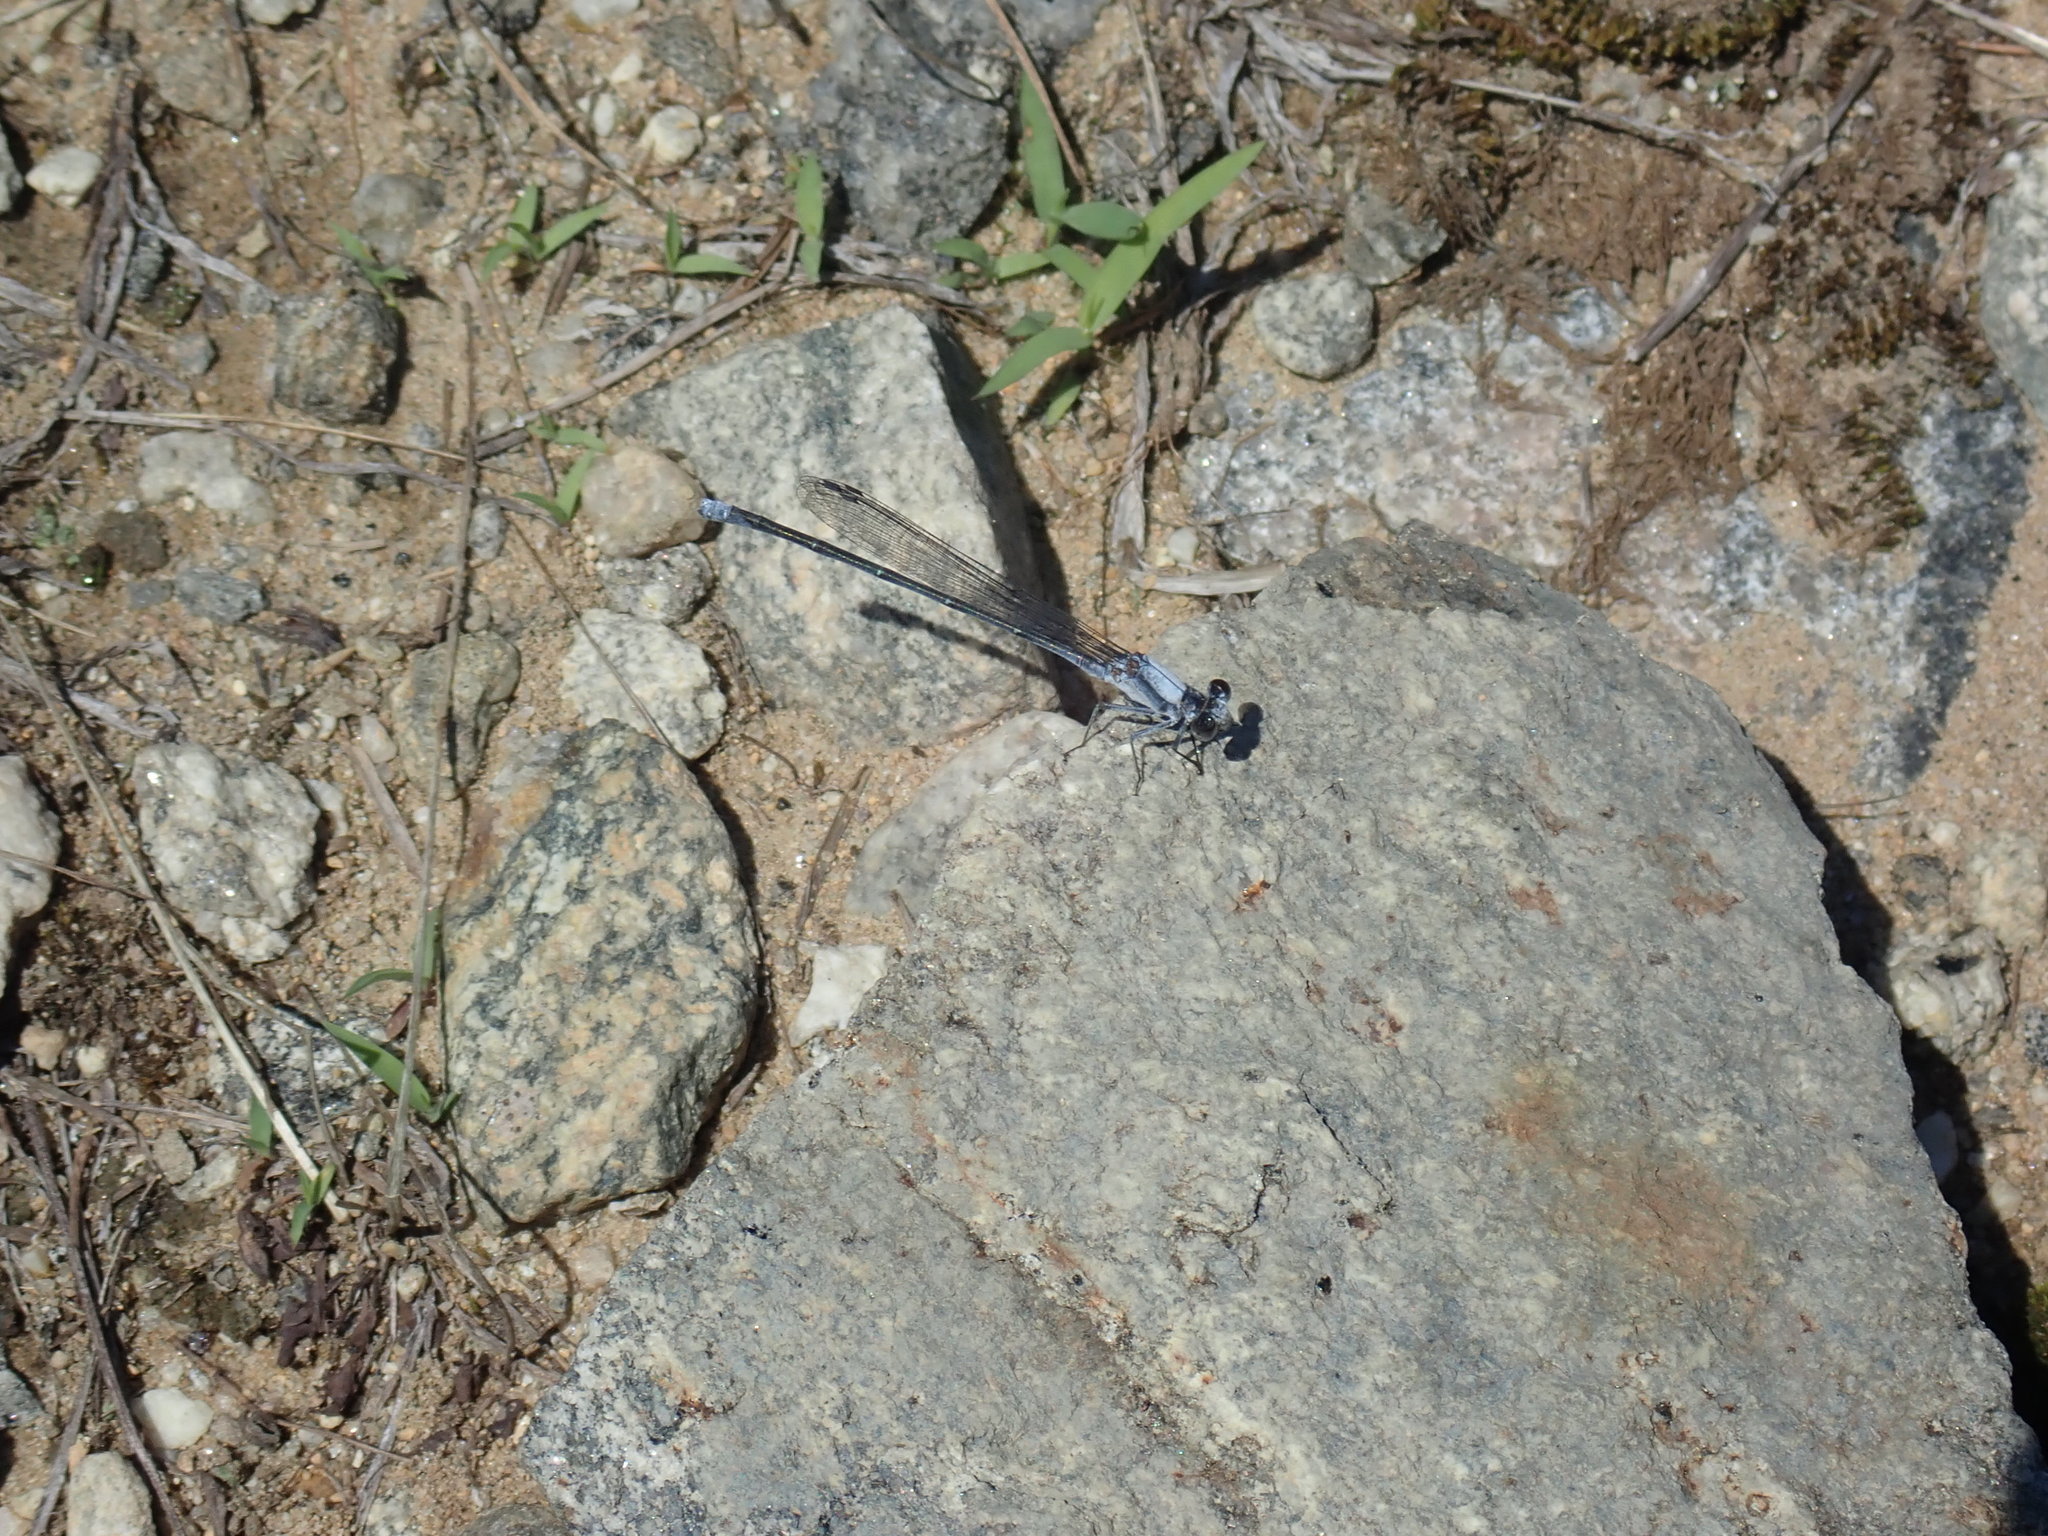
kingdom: Animalia
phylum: Arthropoda
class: Insecta
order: Odonata
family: Coenagrionidae
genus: Argia
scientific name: Argia moesta
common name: Powdered dancer
